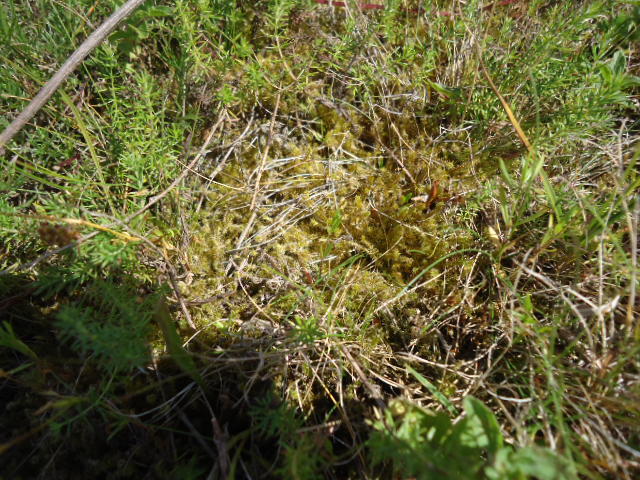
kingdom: Plantae
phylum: Bryophyta
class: Bryopsida
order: Hypnales
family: Hylocomiaceae
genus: Rhytidiadelphus
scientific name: Rhytidiadelphus squarrosus
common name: Springy turf-moss
